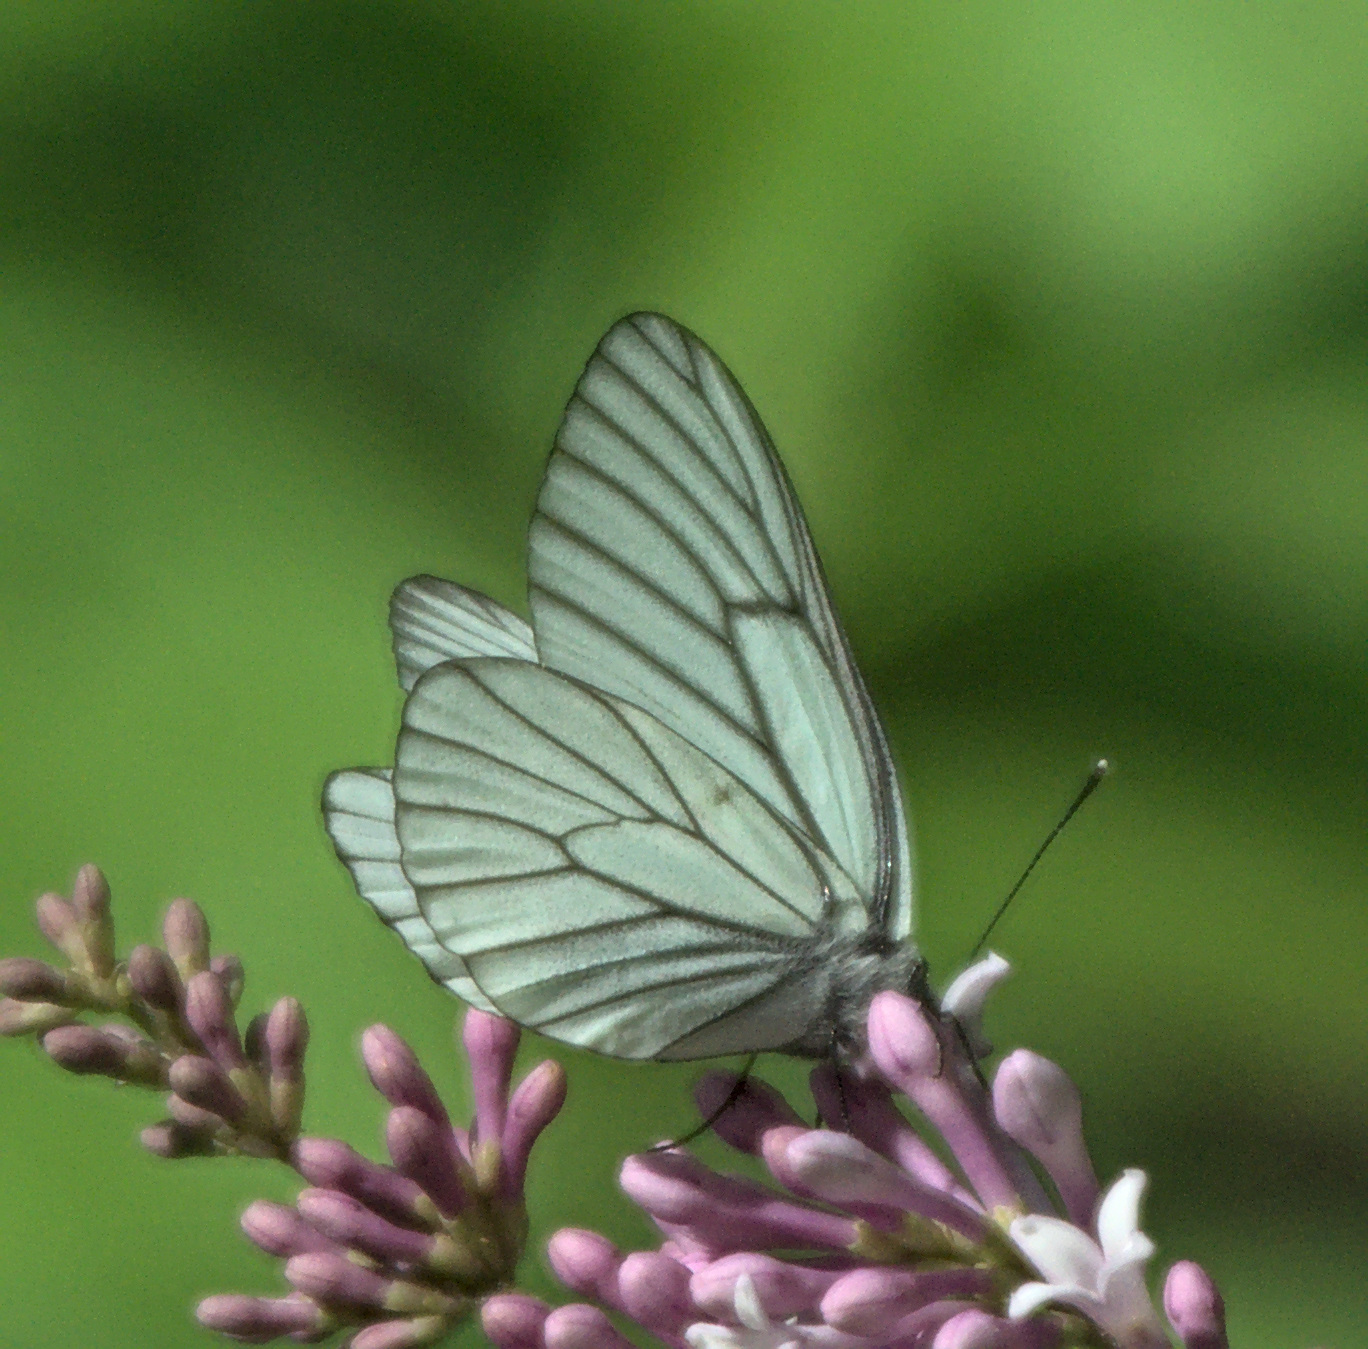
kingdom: Animalia
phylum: Arthropoda
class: Insecta
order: Lepidoptera
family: Pieridae
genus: Aporia
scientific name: Aporia crataegi
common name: Black-veined white
